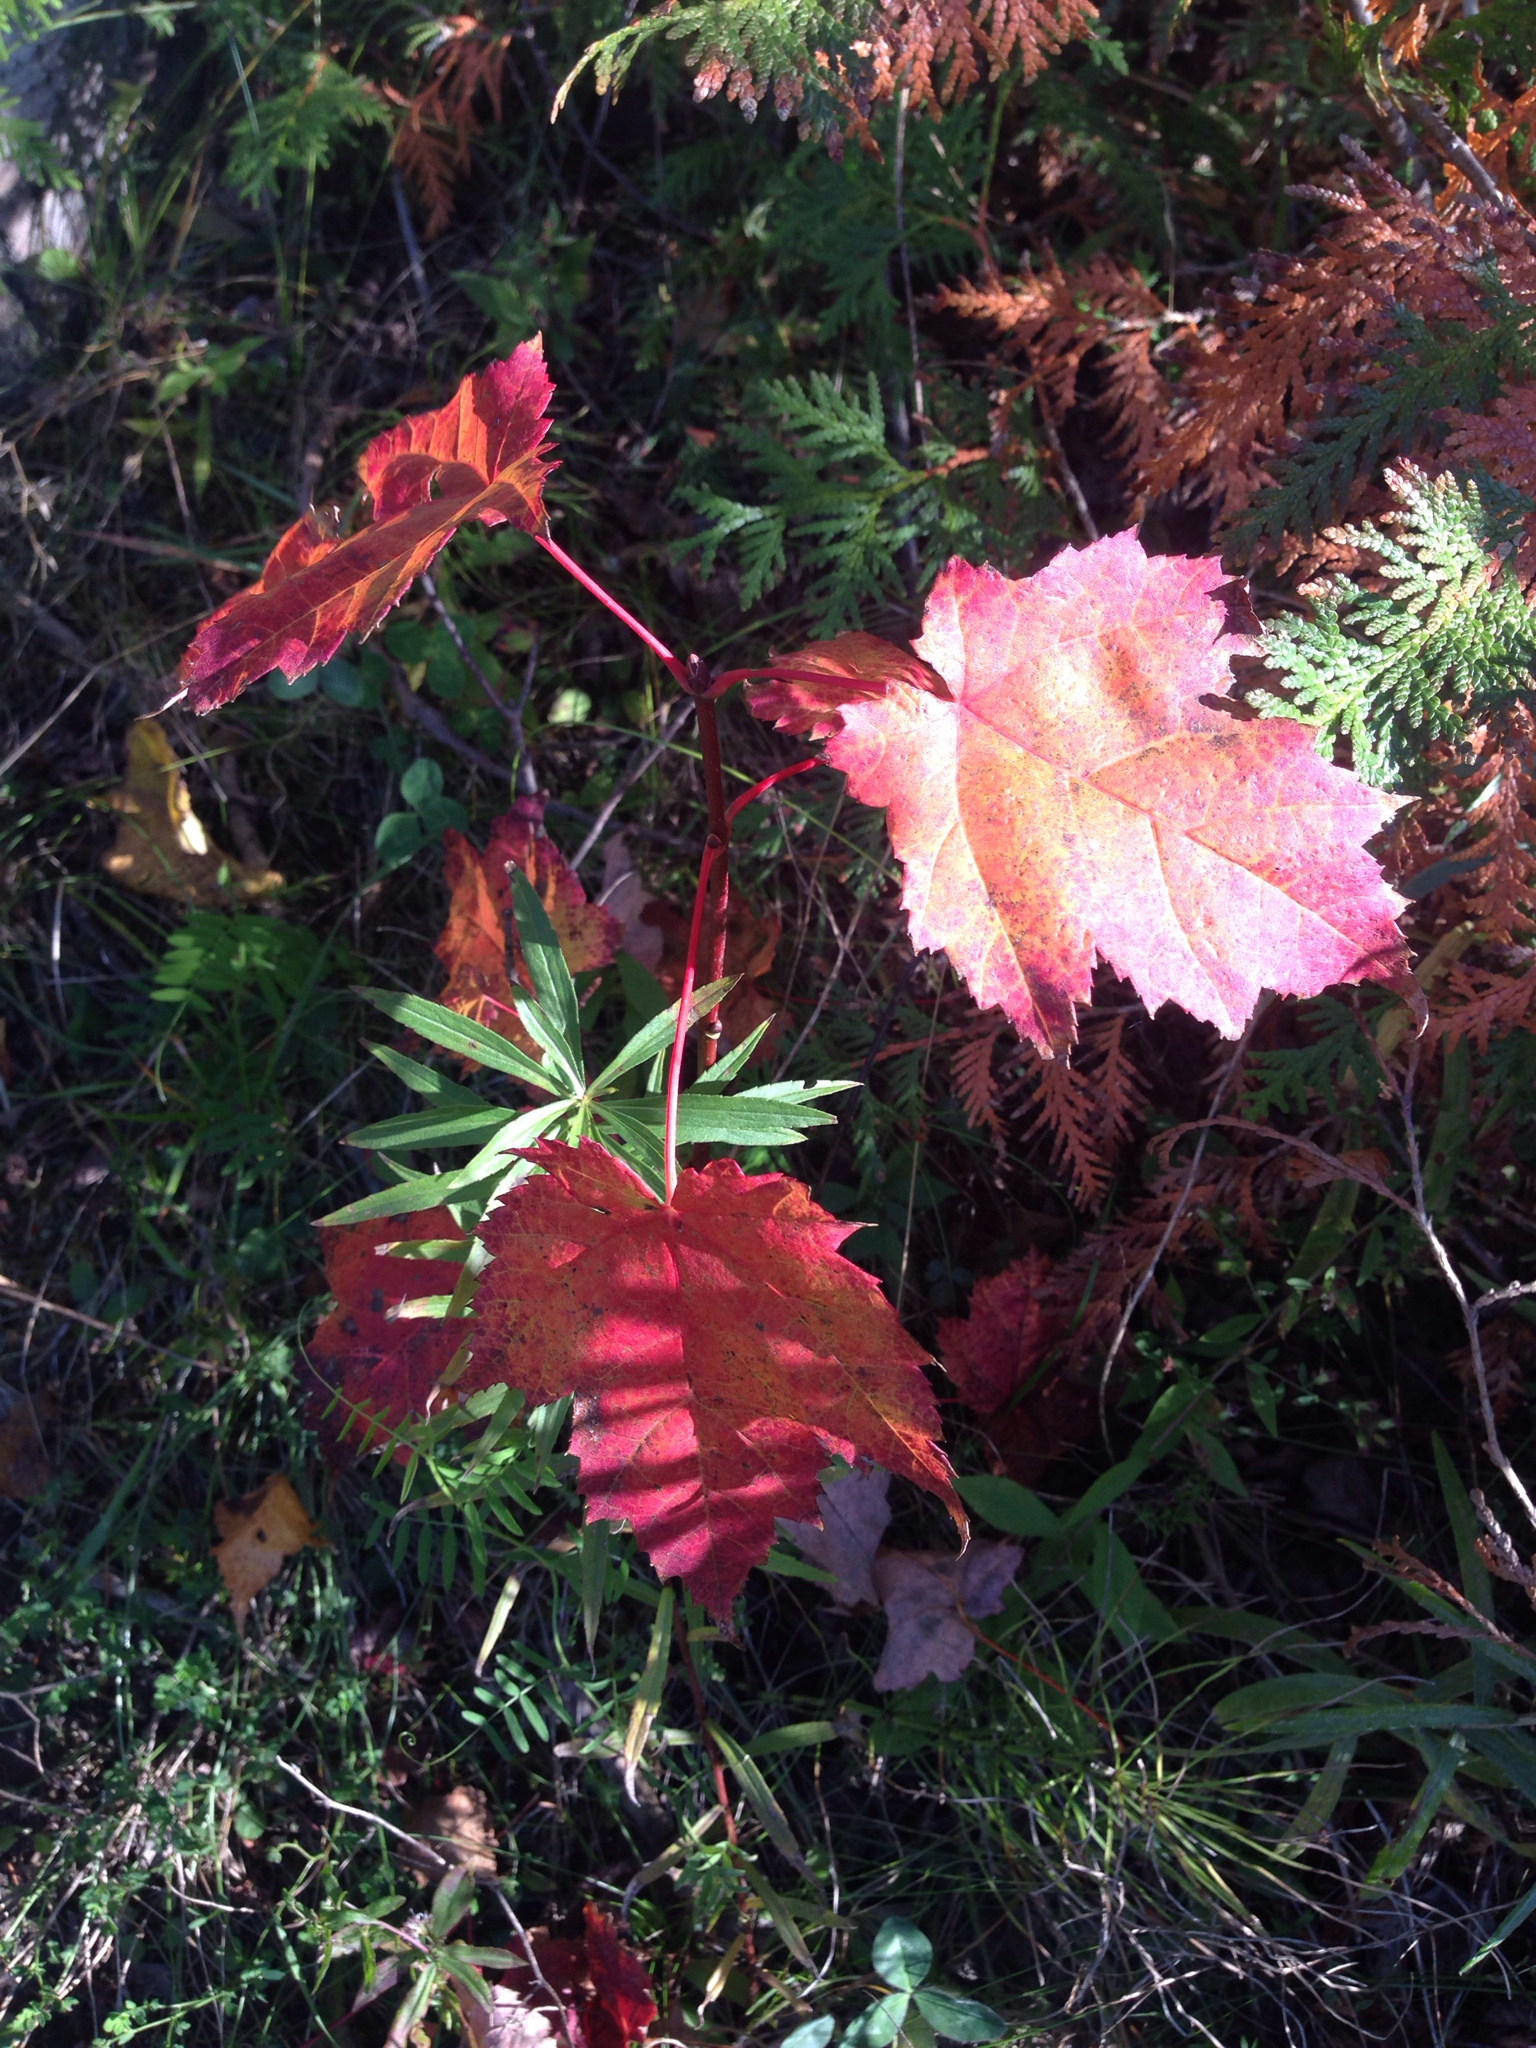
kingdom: Plantae
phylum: Tracheophyta
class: Magnoliopsida
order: Sapindales
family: Sapindaceae
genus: Acer
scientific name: Acer rubrum
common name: Red maple
